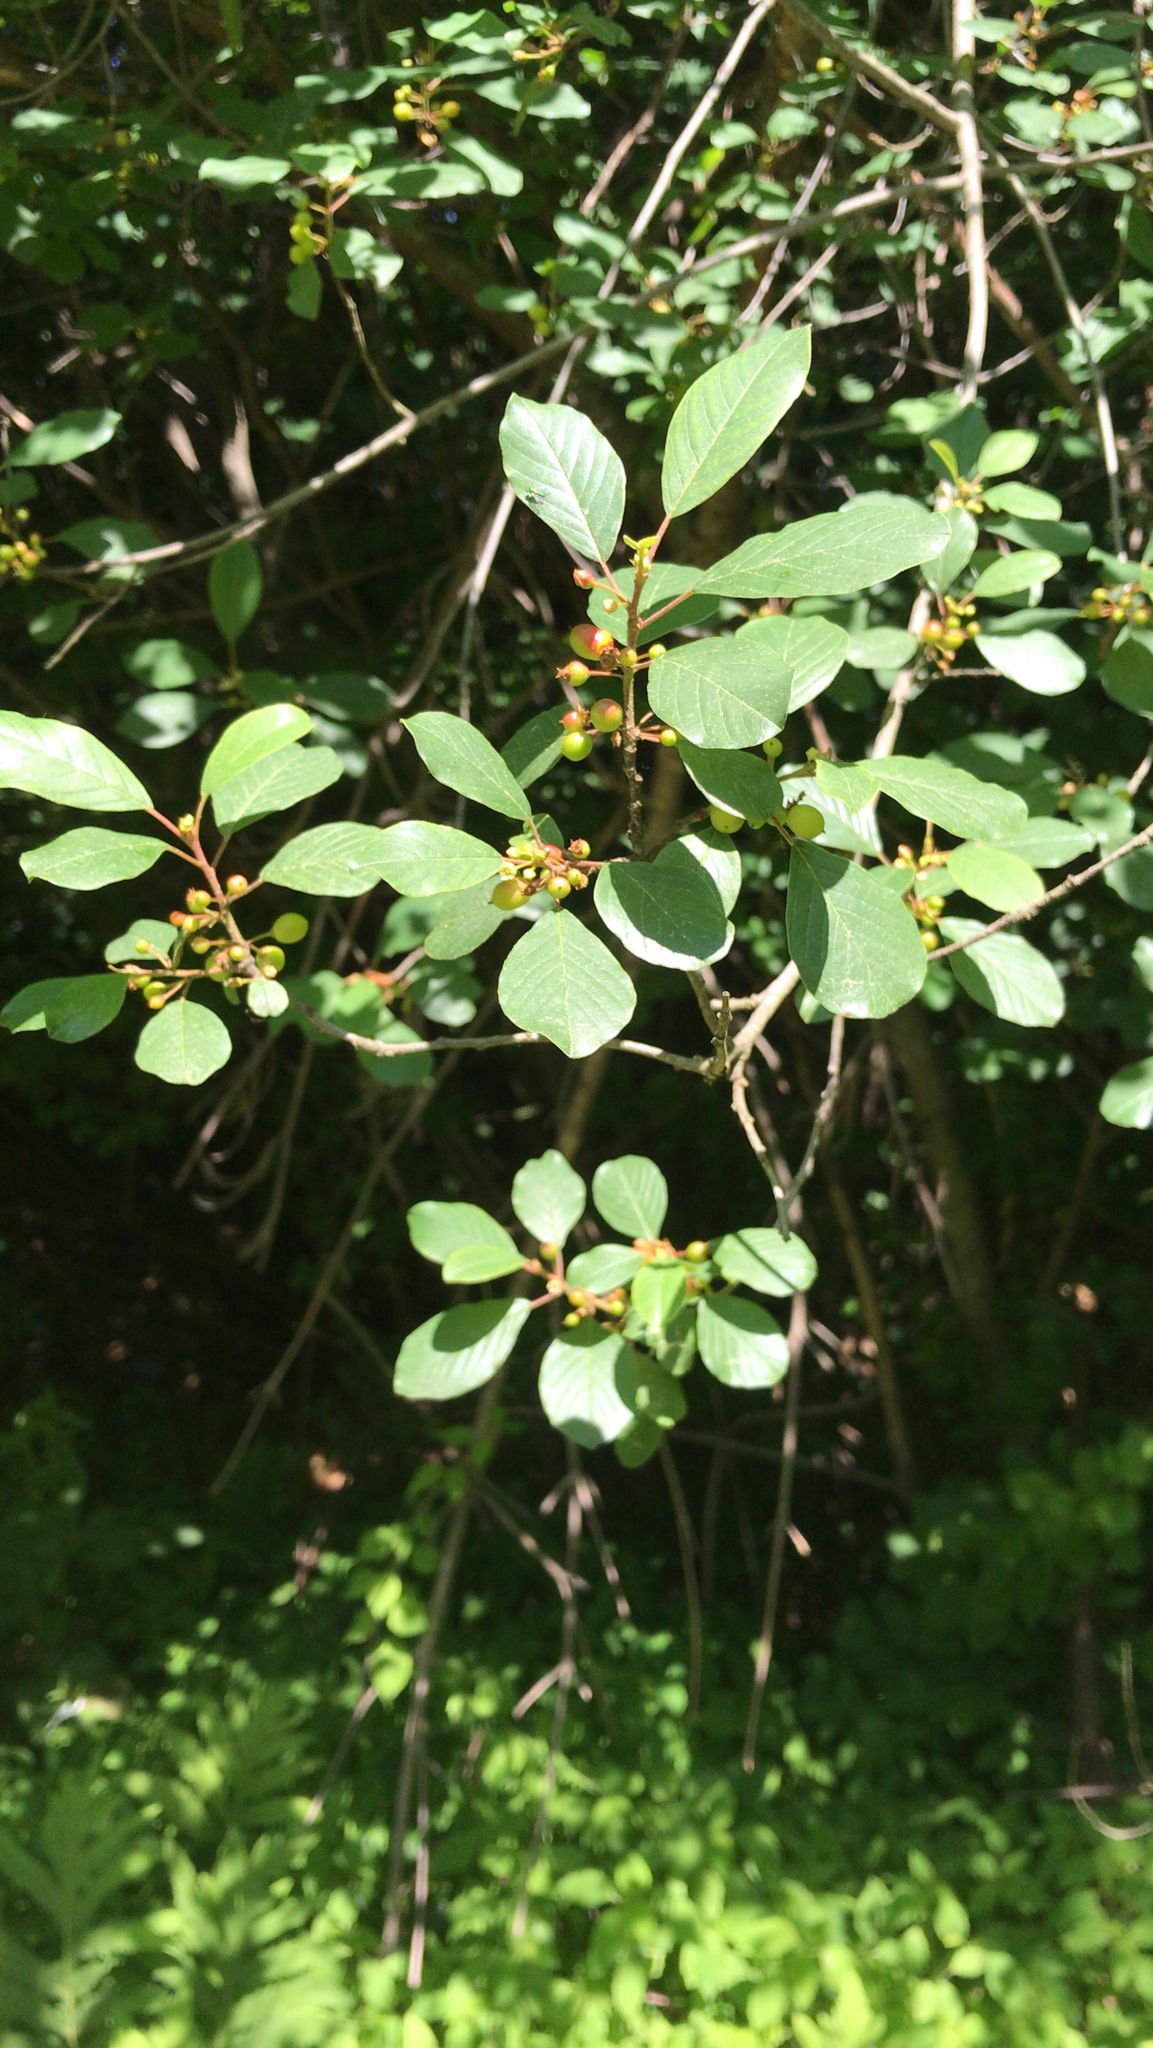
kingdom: Plantae
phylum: Tracheophyta
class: Magnoliopsida
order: Rosales
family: Rhamnaceae
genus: Frangula
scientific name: Frangula alnus
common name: Alder buckthorn
